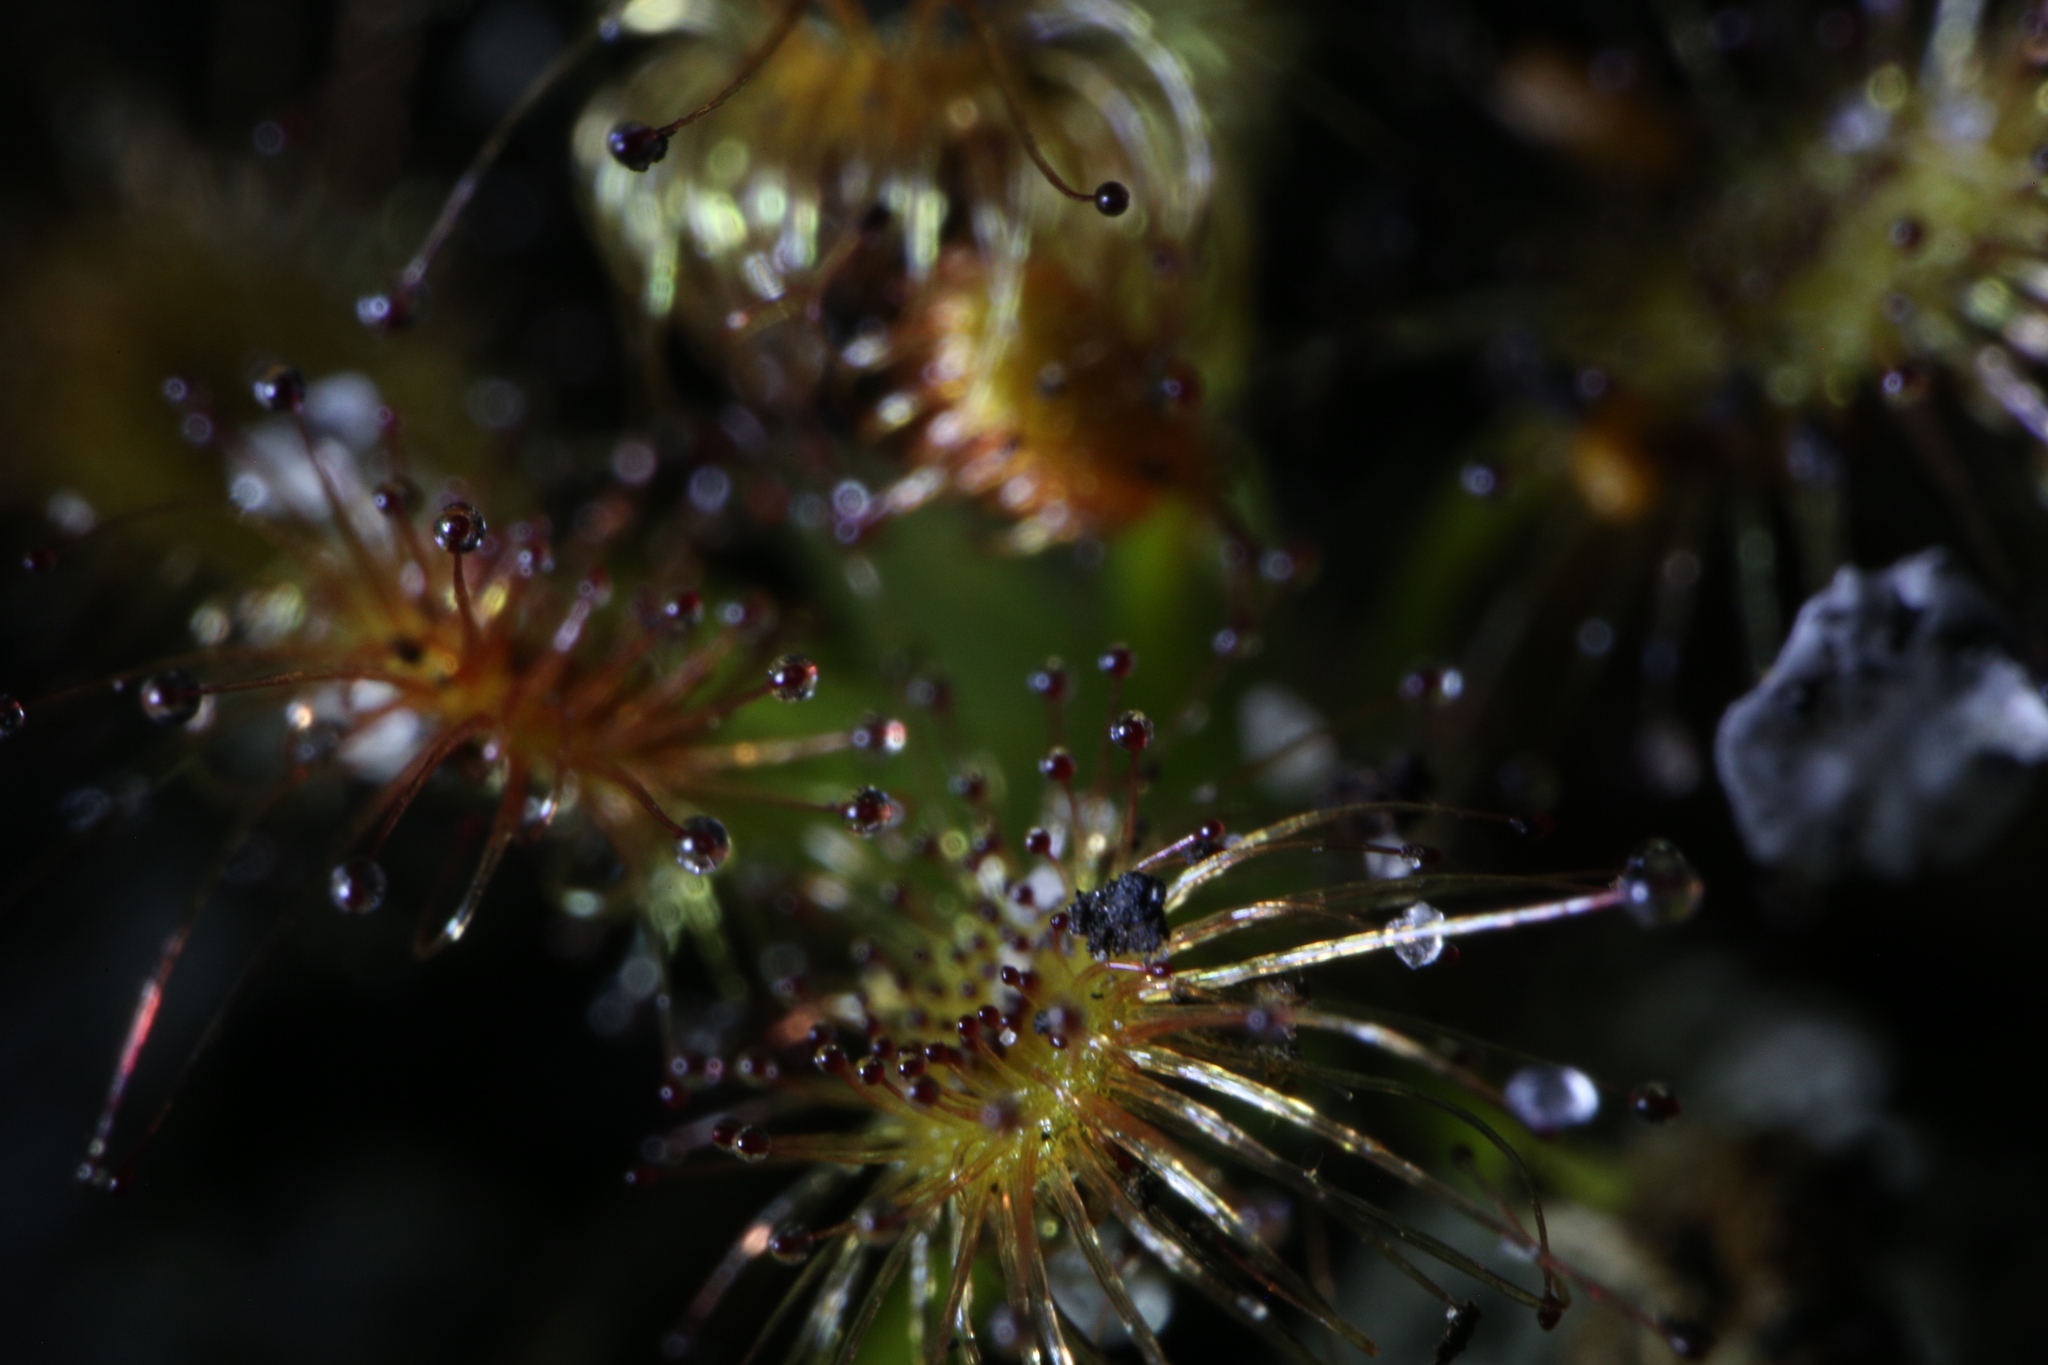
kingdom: Plantae
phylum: Tracheophyta
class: Magnoliopsida
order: Caryophyllales
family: Droseraceae
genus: Drosera
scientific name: Drosera paleacea
